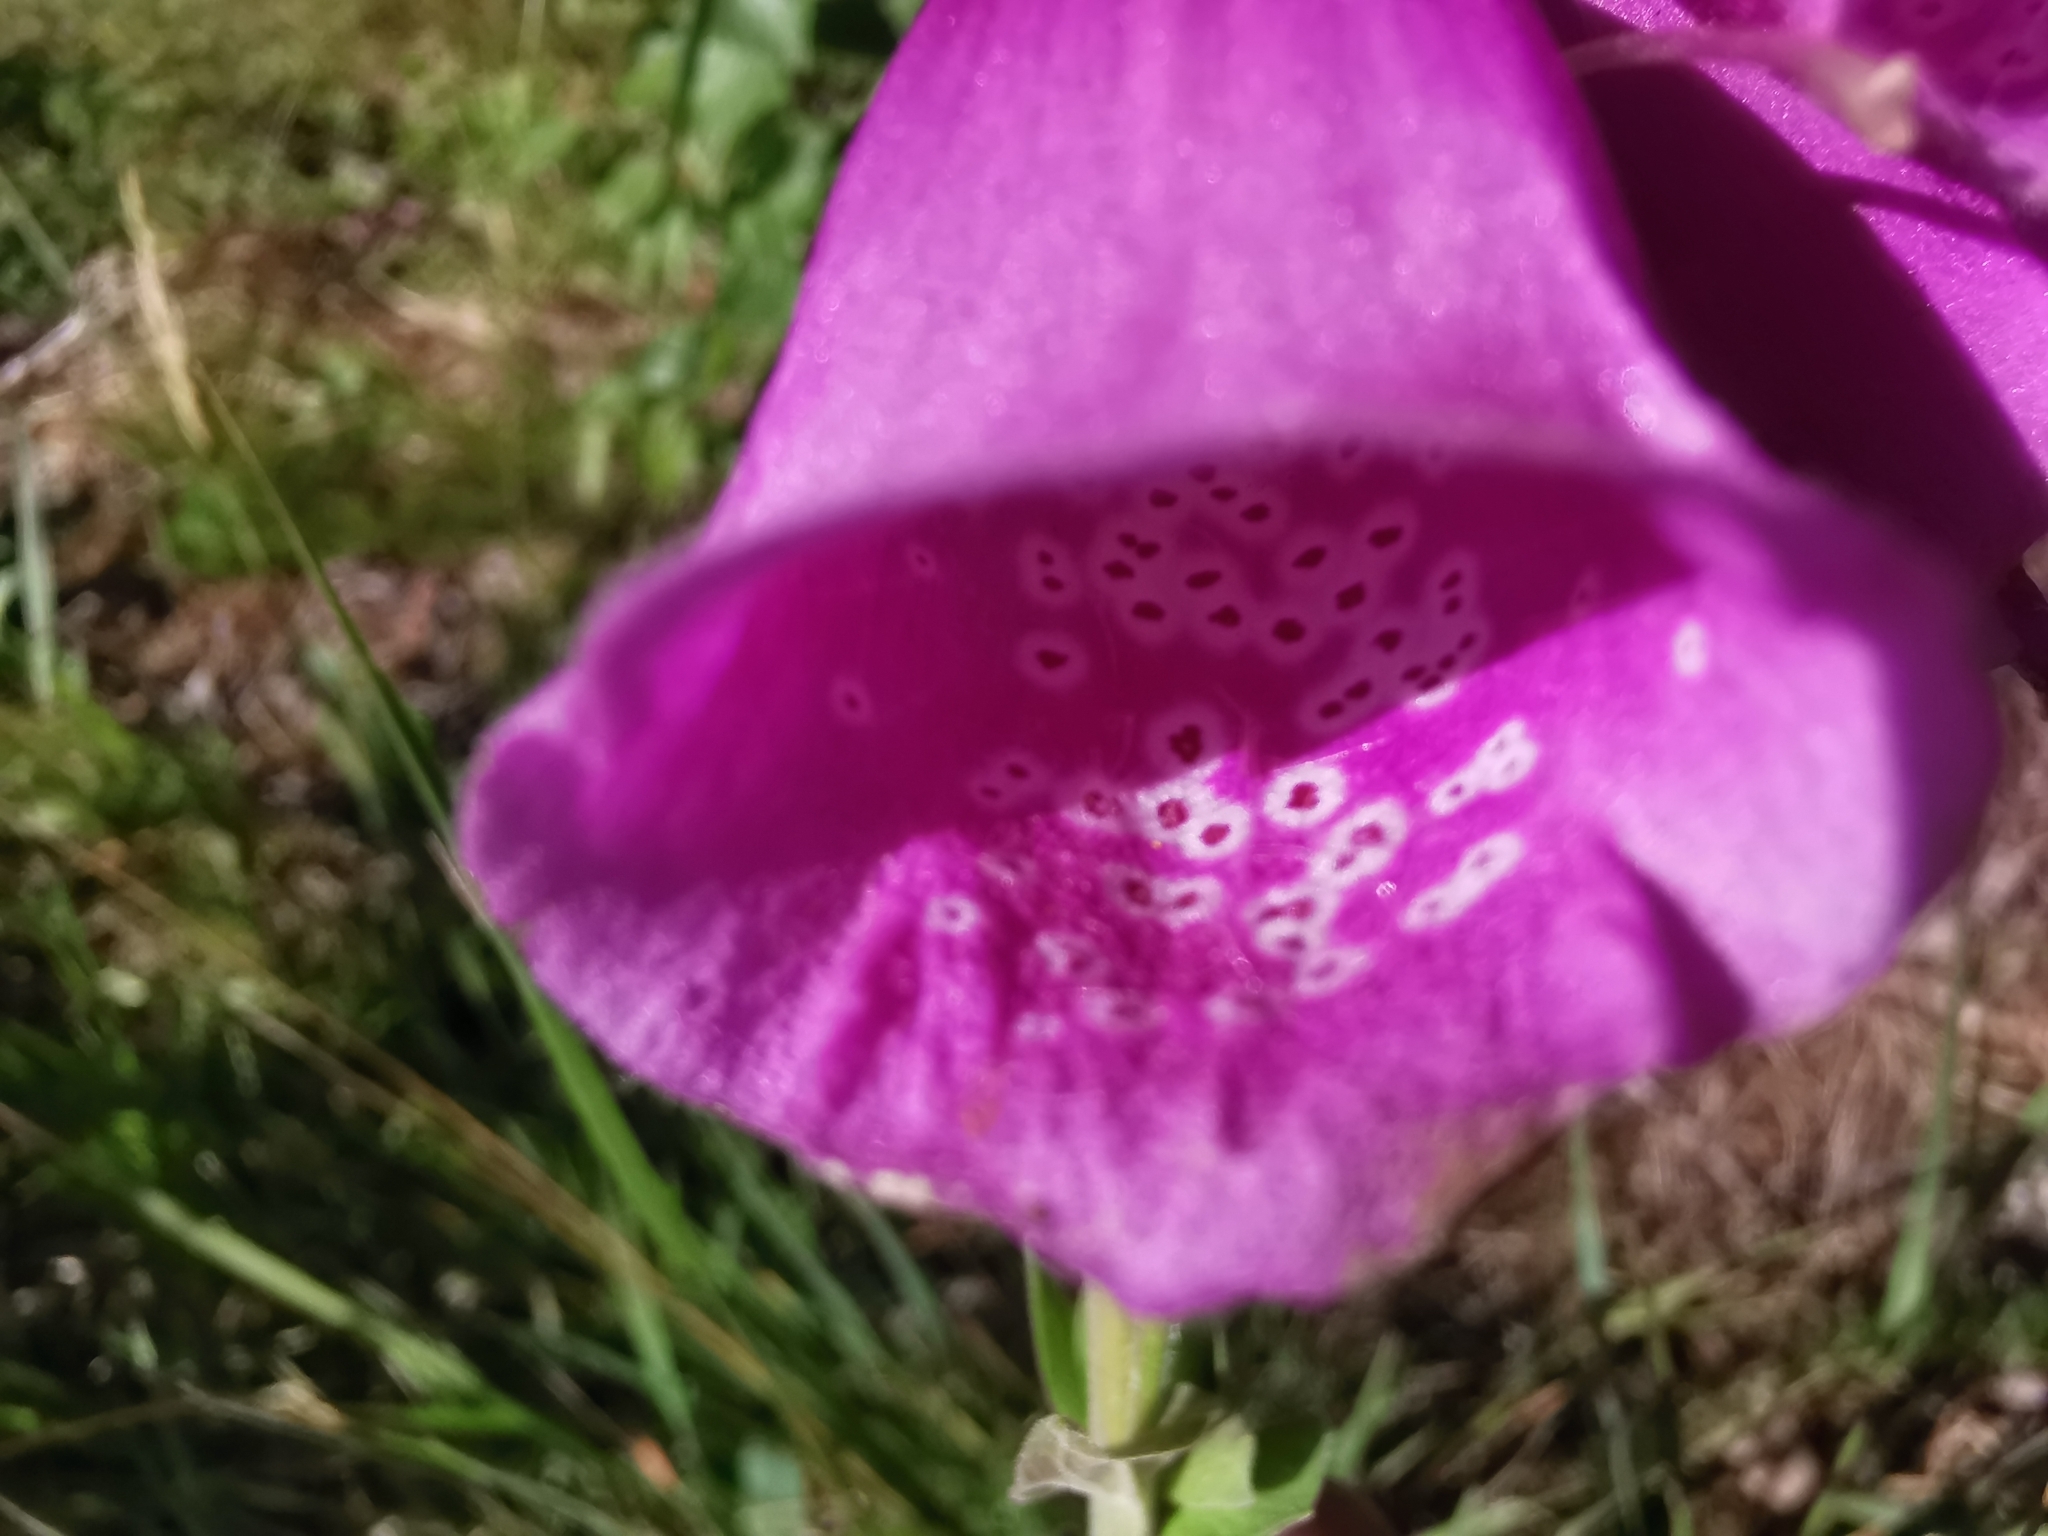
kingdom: Plantae
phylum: Tracheophyta
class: Magnoliopsida
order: Lamiales
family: Plantaginaceae
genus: Digitalis
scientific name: Digitalis purpurea
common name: Foxglove
